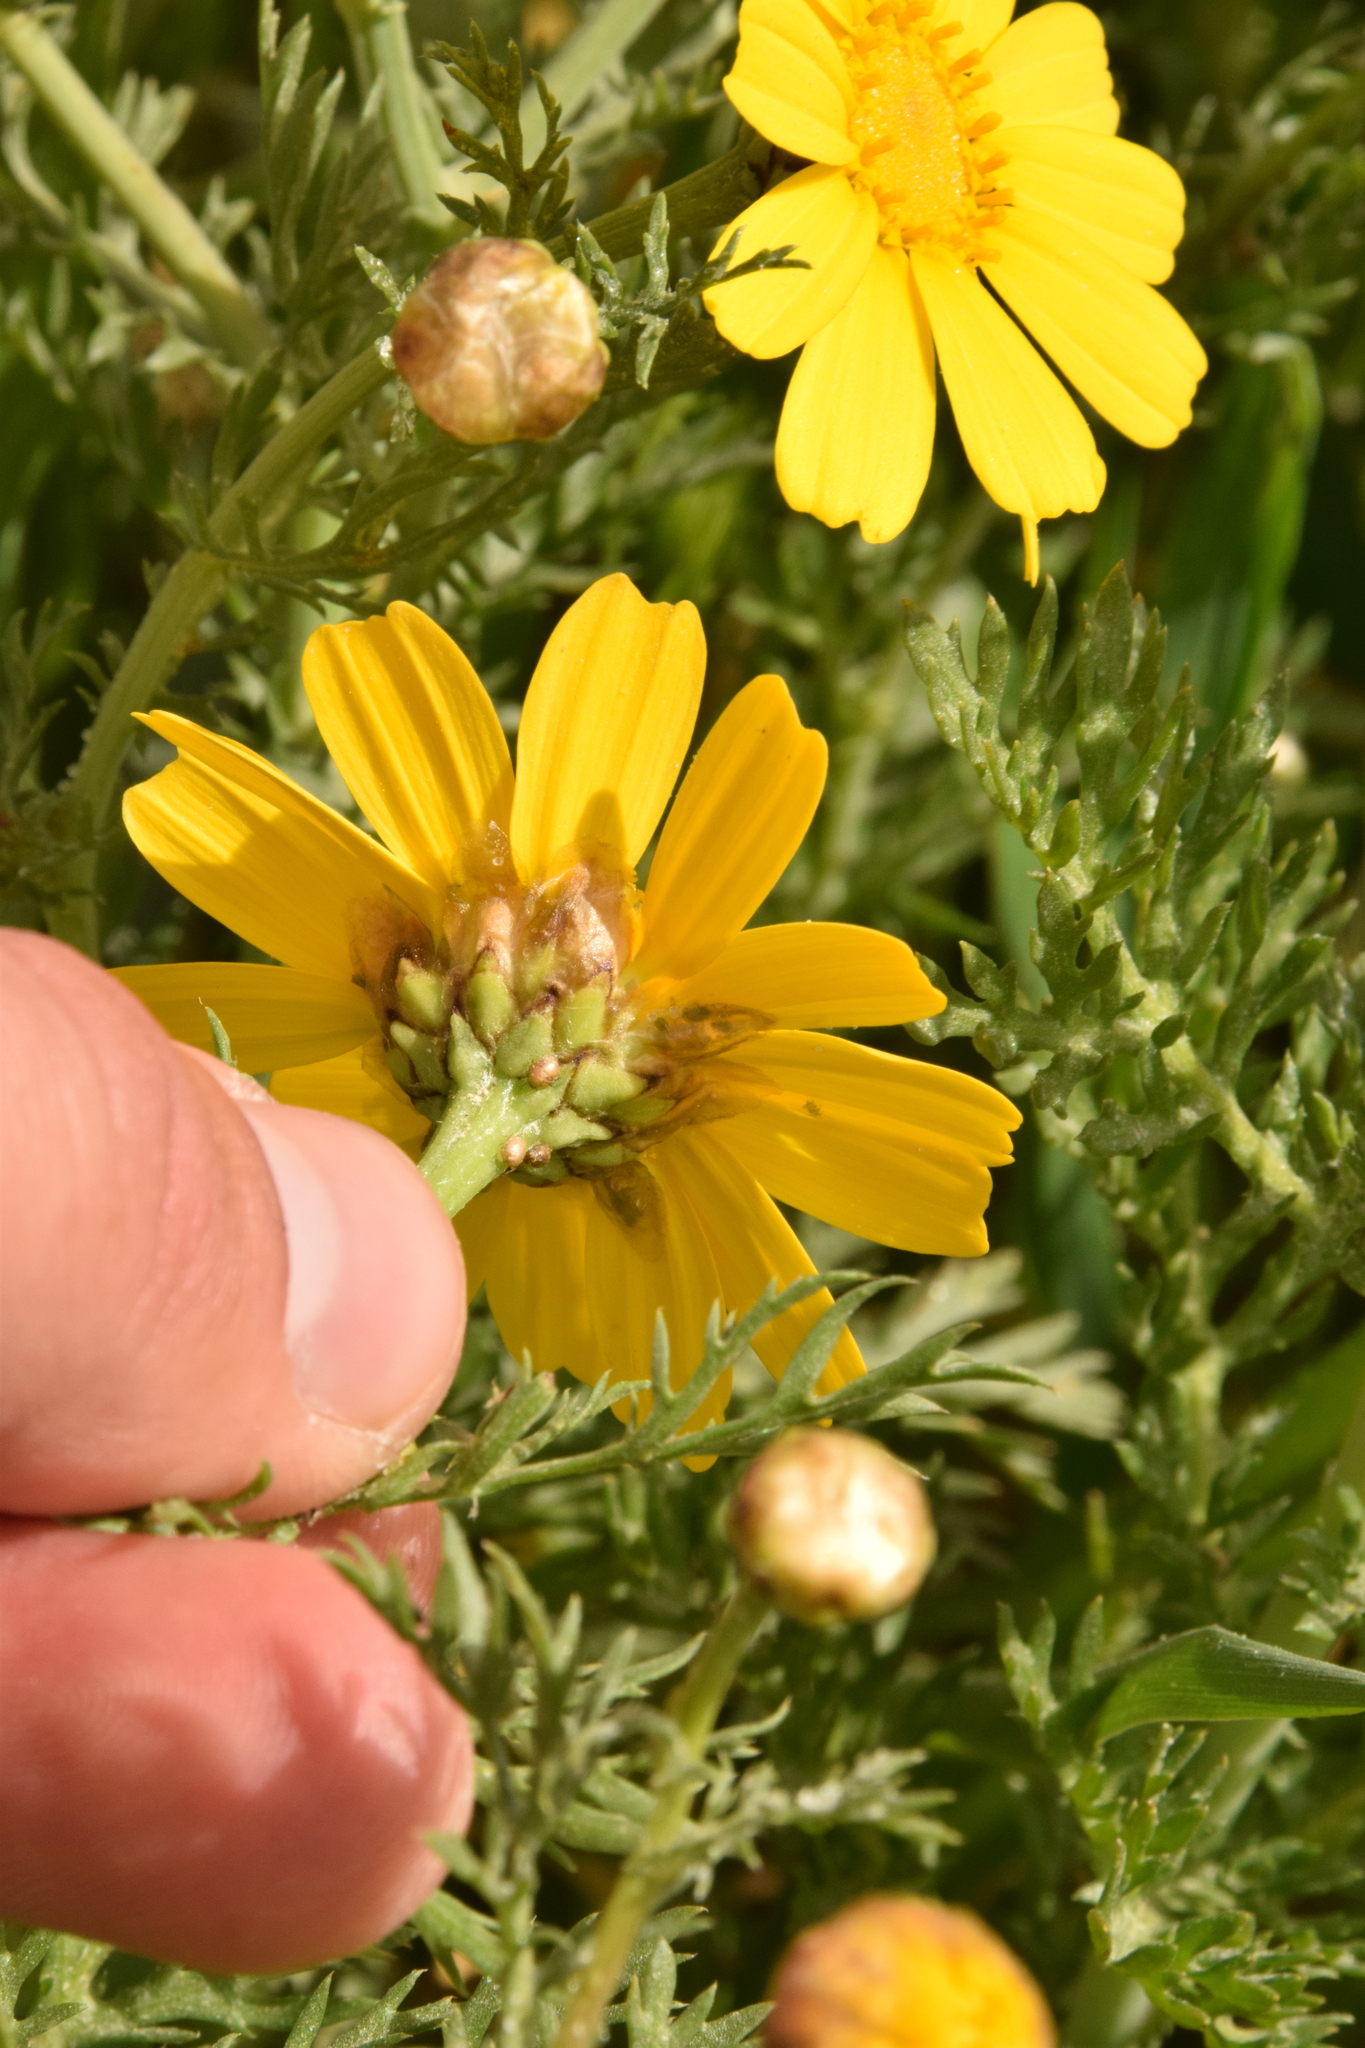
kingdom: Plantae
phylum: Tracheophyta
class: Magnoliopsida
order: Asterales
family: Asteraceae
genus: Glebionis
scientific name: Glebionis coronaria
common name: Crowndaisy
